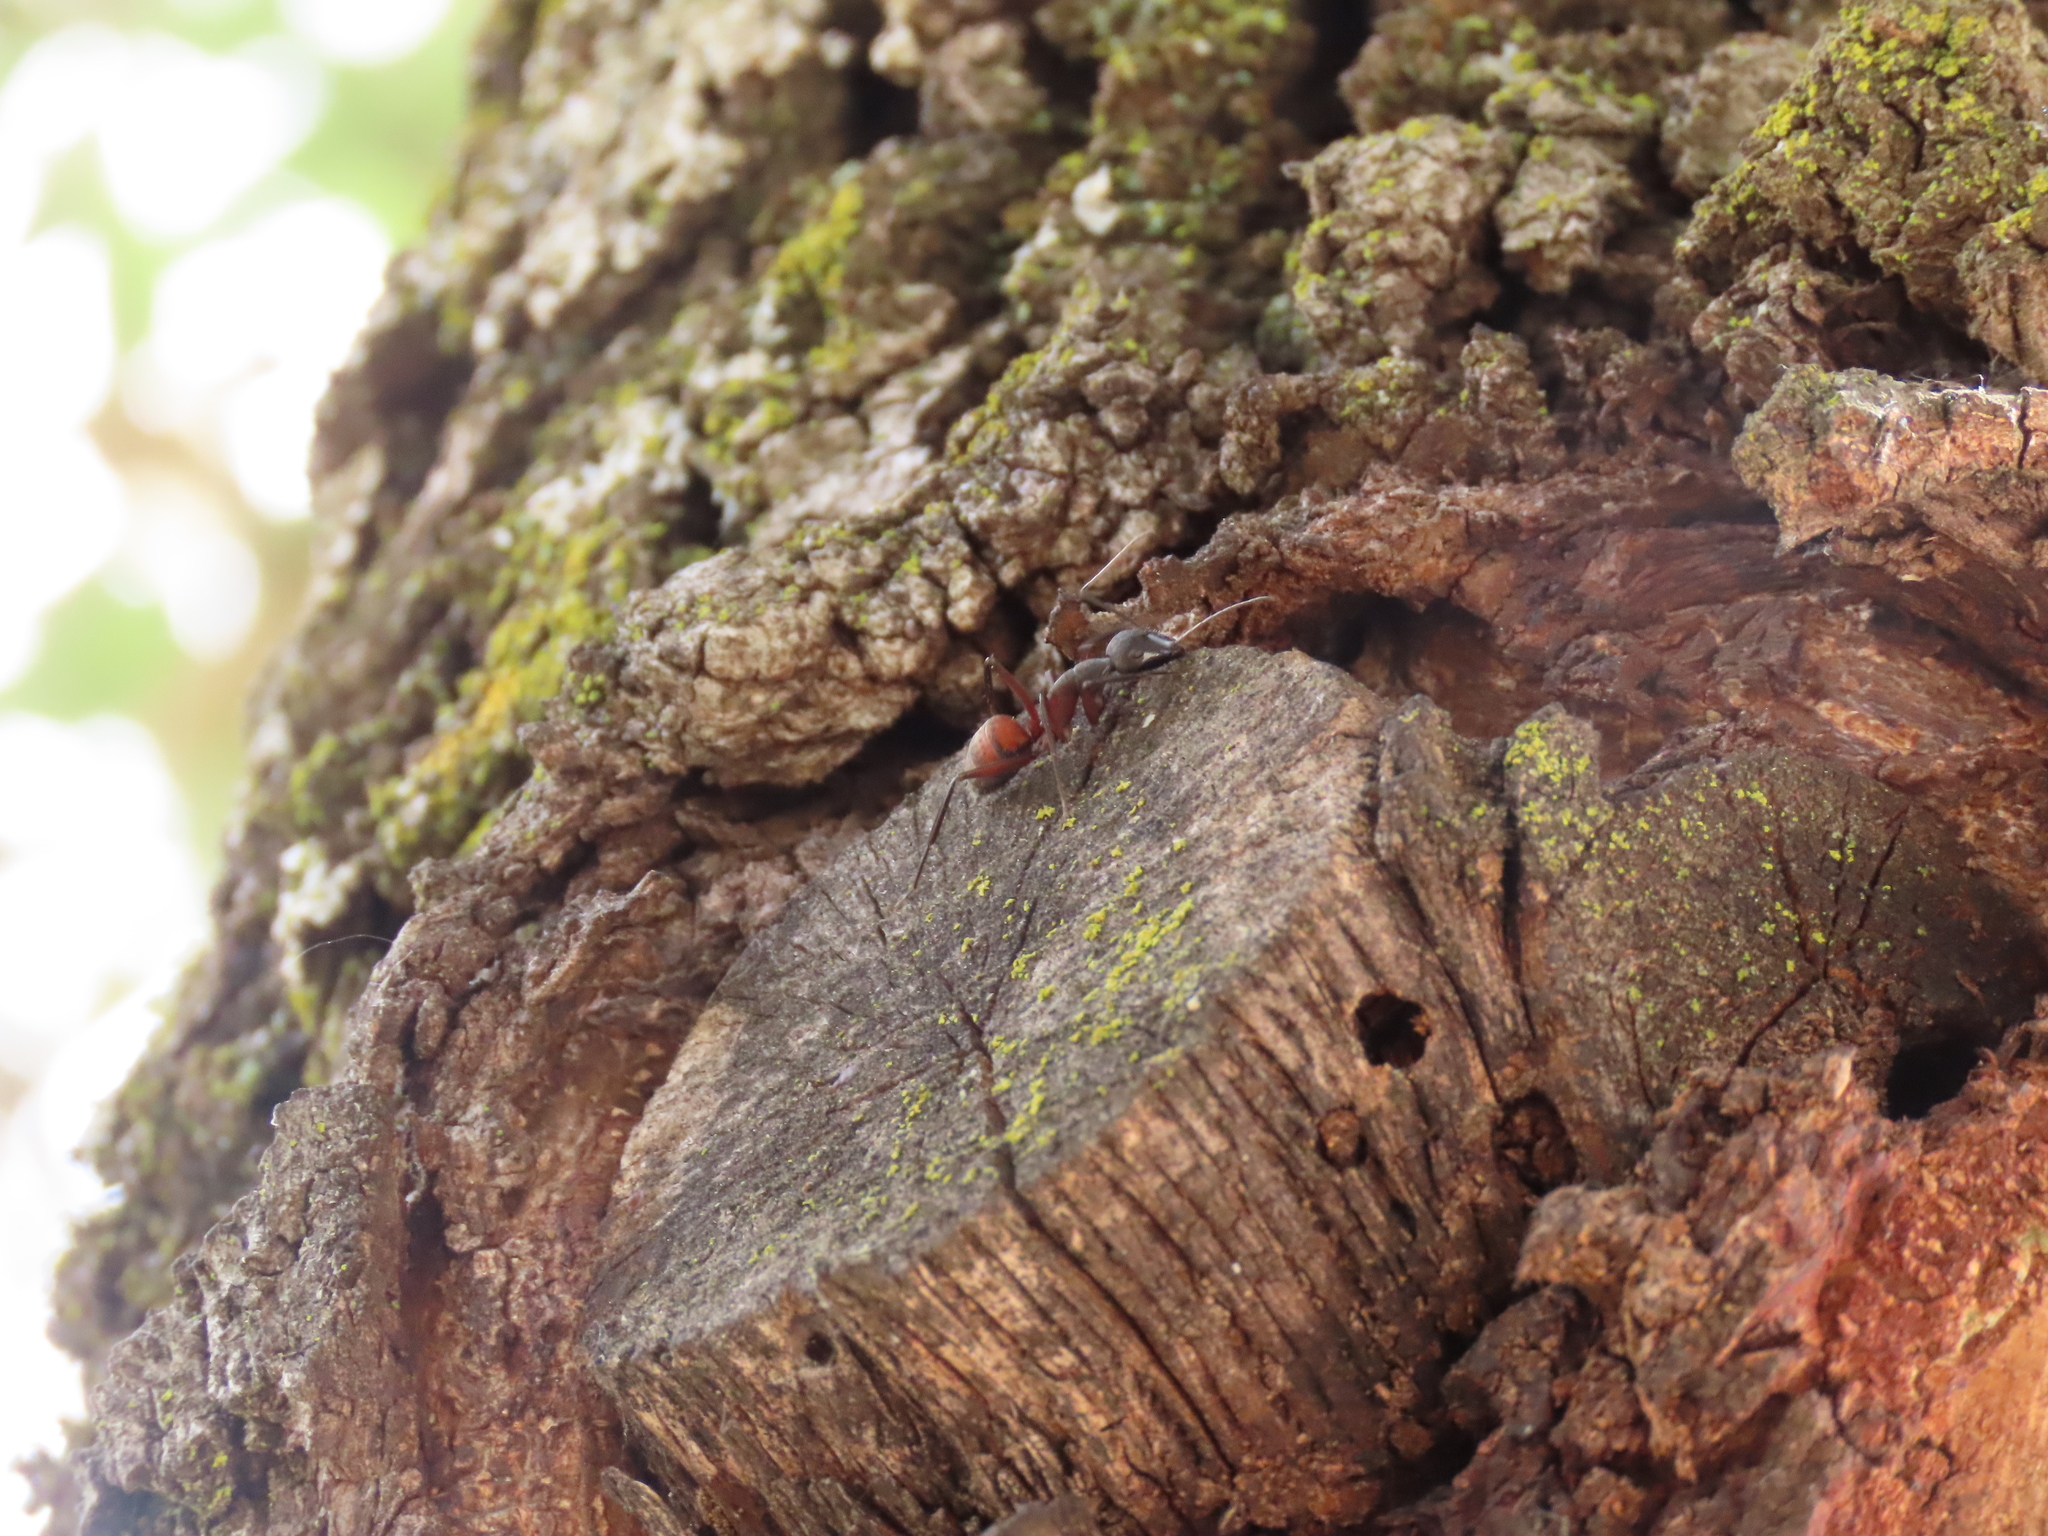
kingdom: Animalia
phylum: Arthropoda
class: Insecta
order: Hymenoptera
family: Formicidae
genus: Camponotus
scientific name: Camponotus cruentatus
